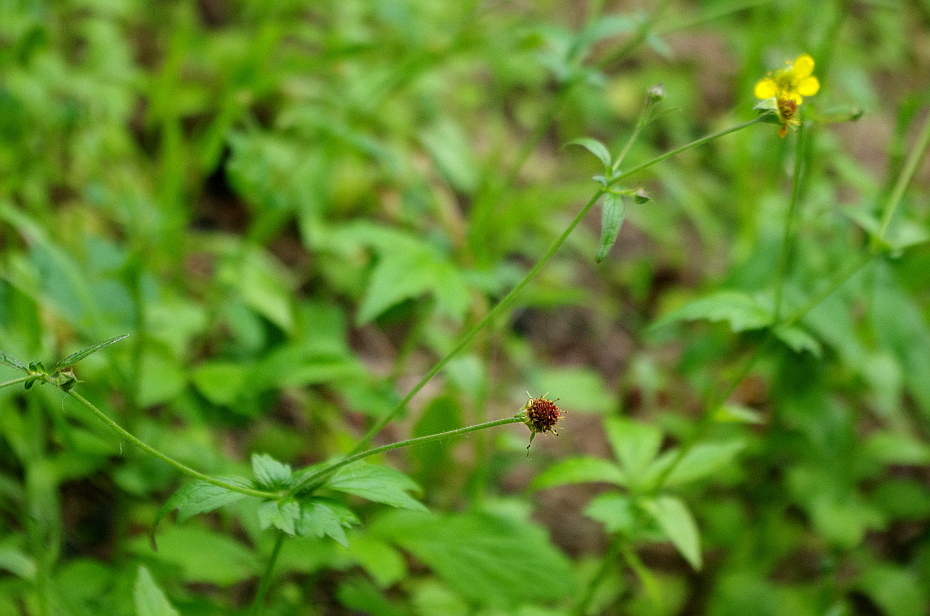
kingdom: Plantae
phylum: Tracheophyta
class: Magnoliopsida
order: Rosales
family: Rosaceae
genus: Geum
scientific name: Geum urbanum
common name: Wood avens
